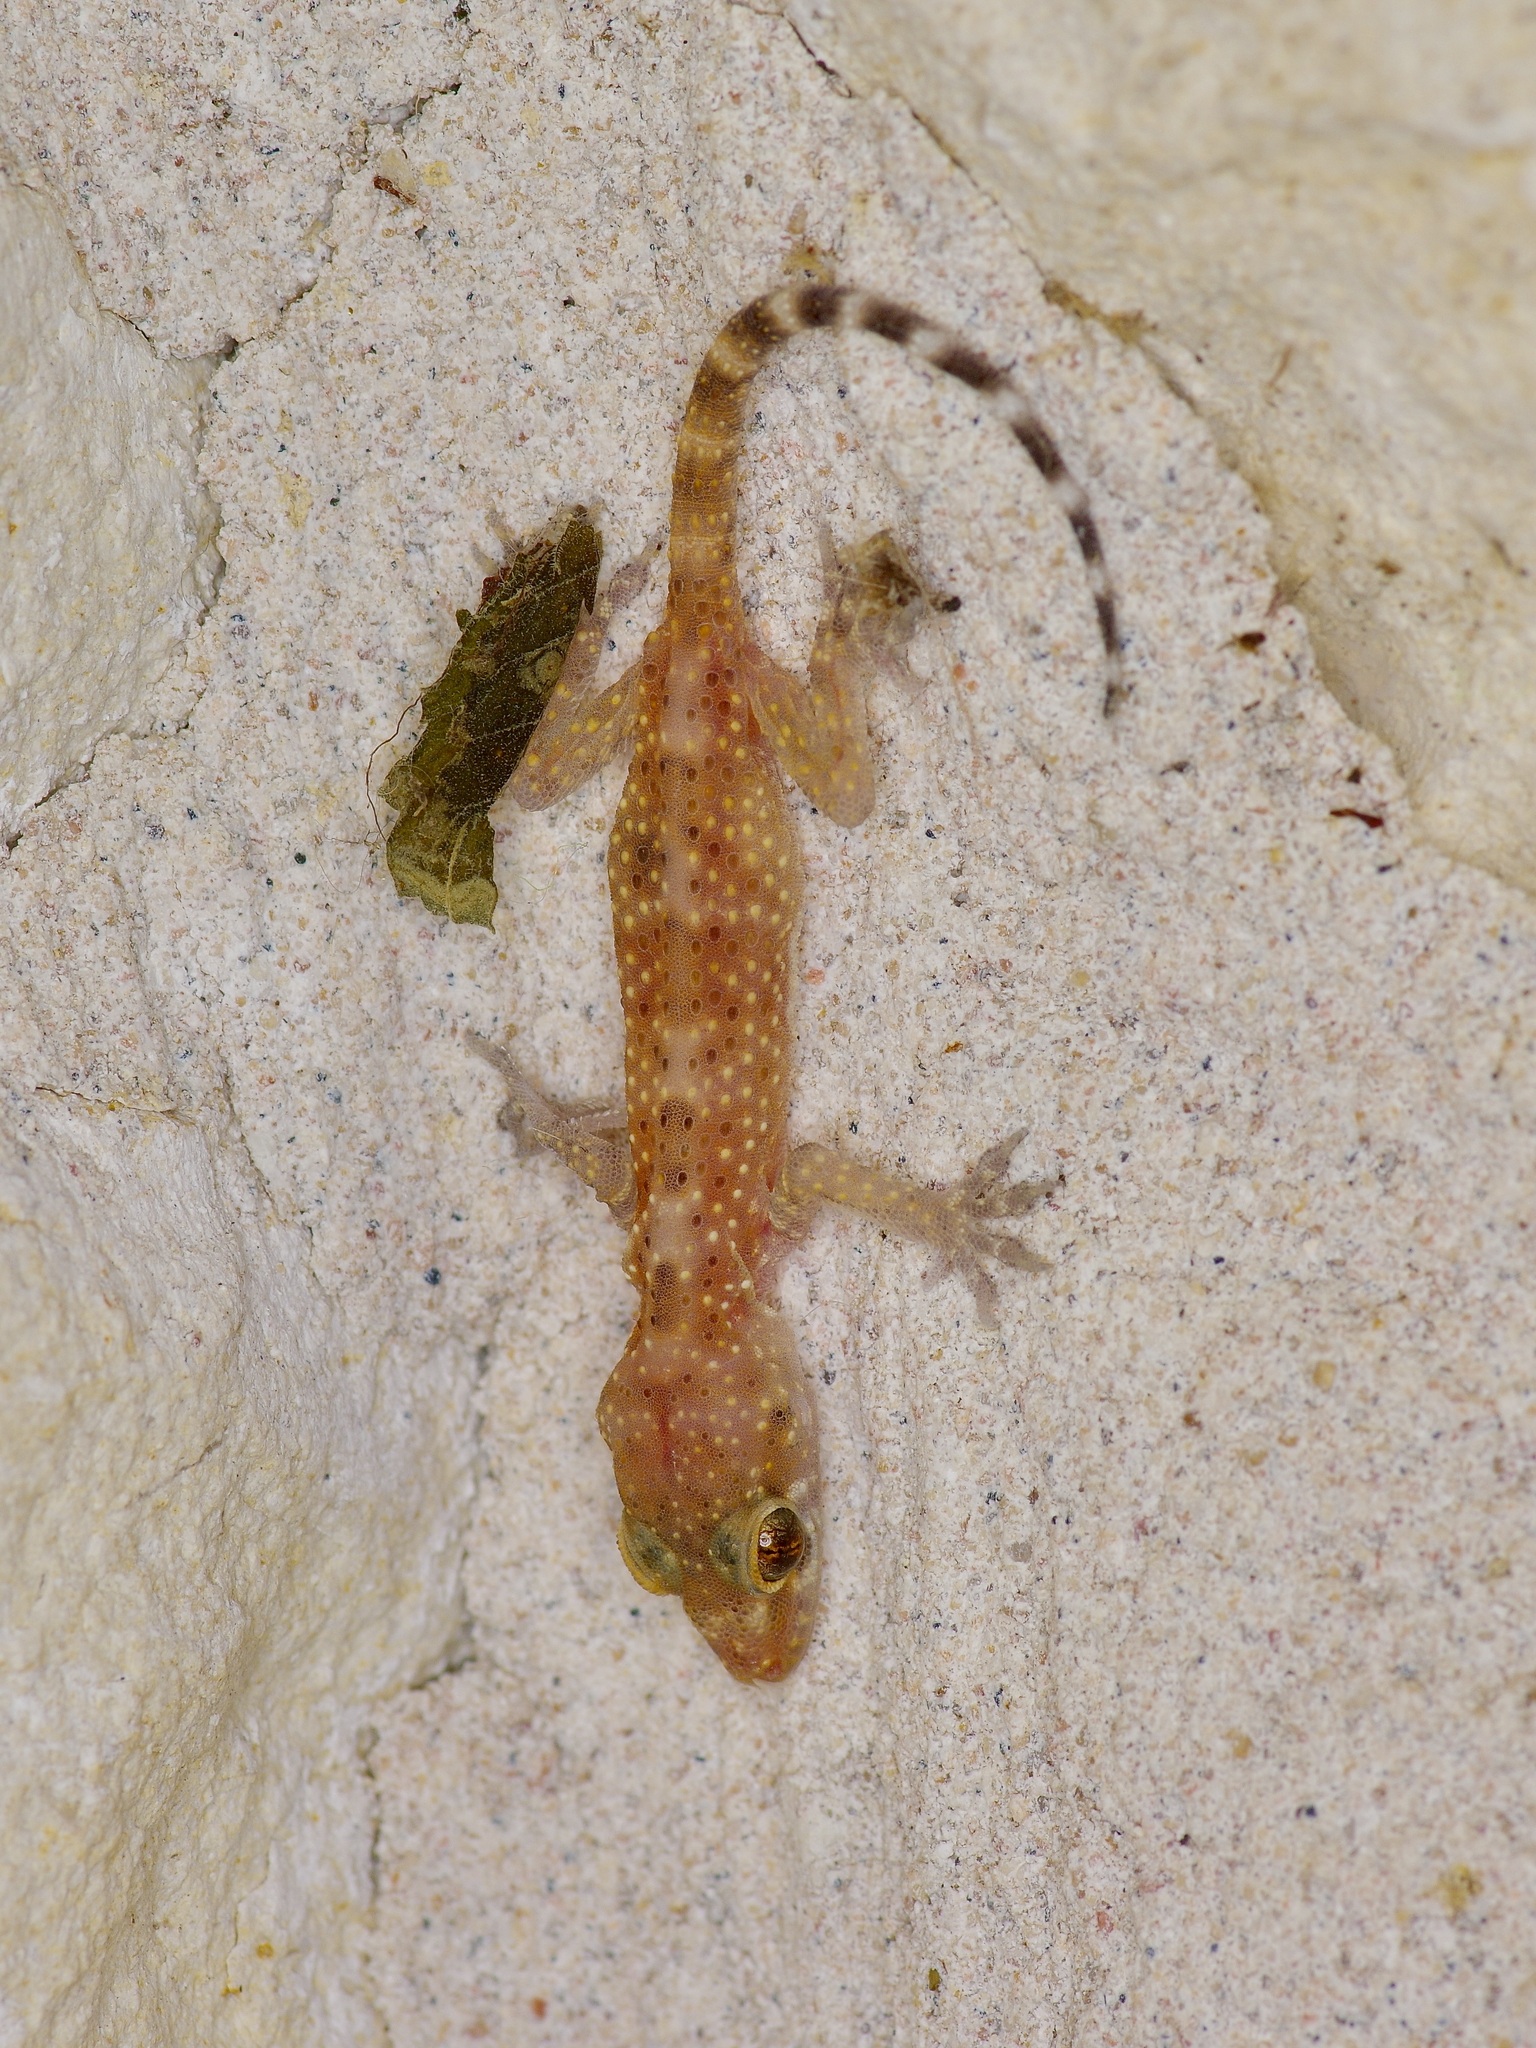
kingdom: Animalia
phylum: Chordata
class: Squamata
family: Gekkonidae
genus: Hemidactylus
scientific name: Hemidactylus turcicus
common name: Turkish gecko
